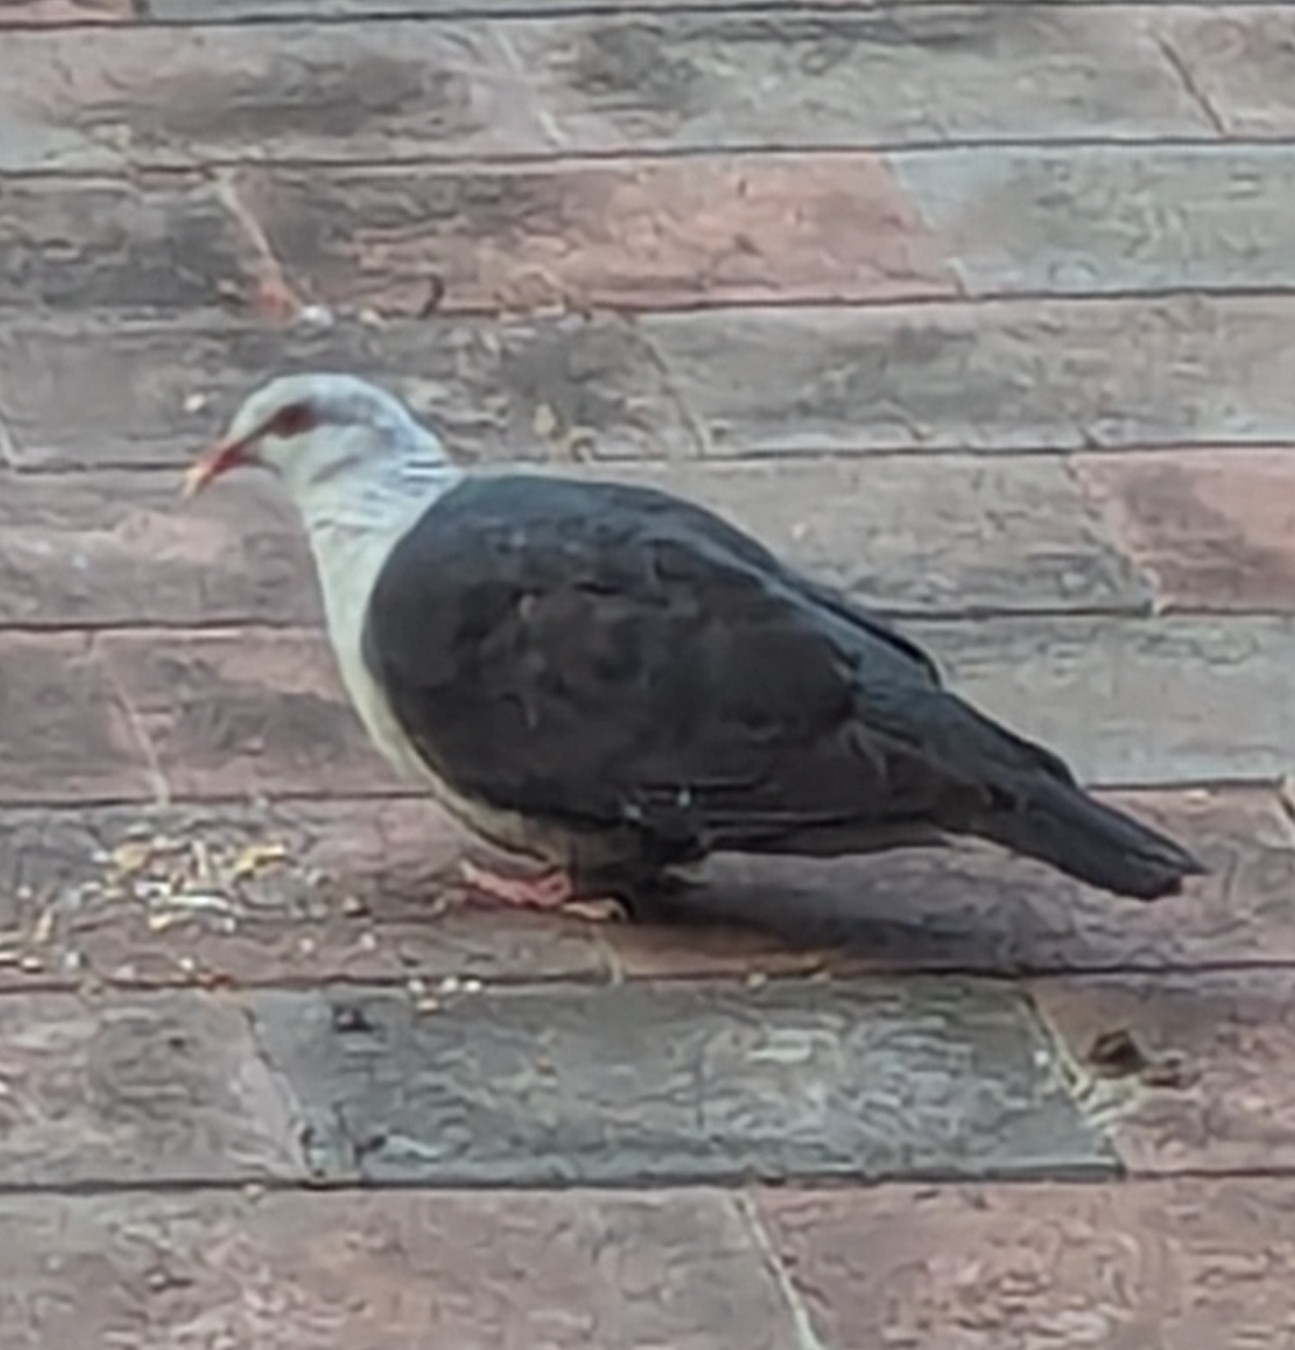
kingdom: Animalia
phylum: Chordata
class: Aves
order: Columbiformes
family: Columbidae
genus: Columba
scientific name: Columba leucomela
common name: White-headed pigeon
